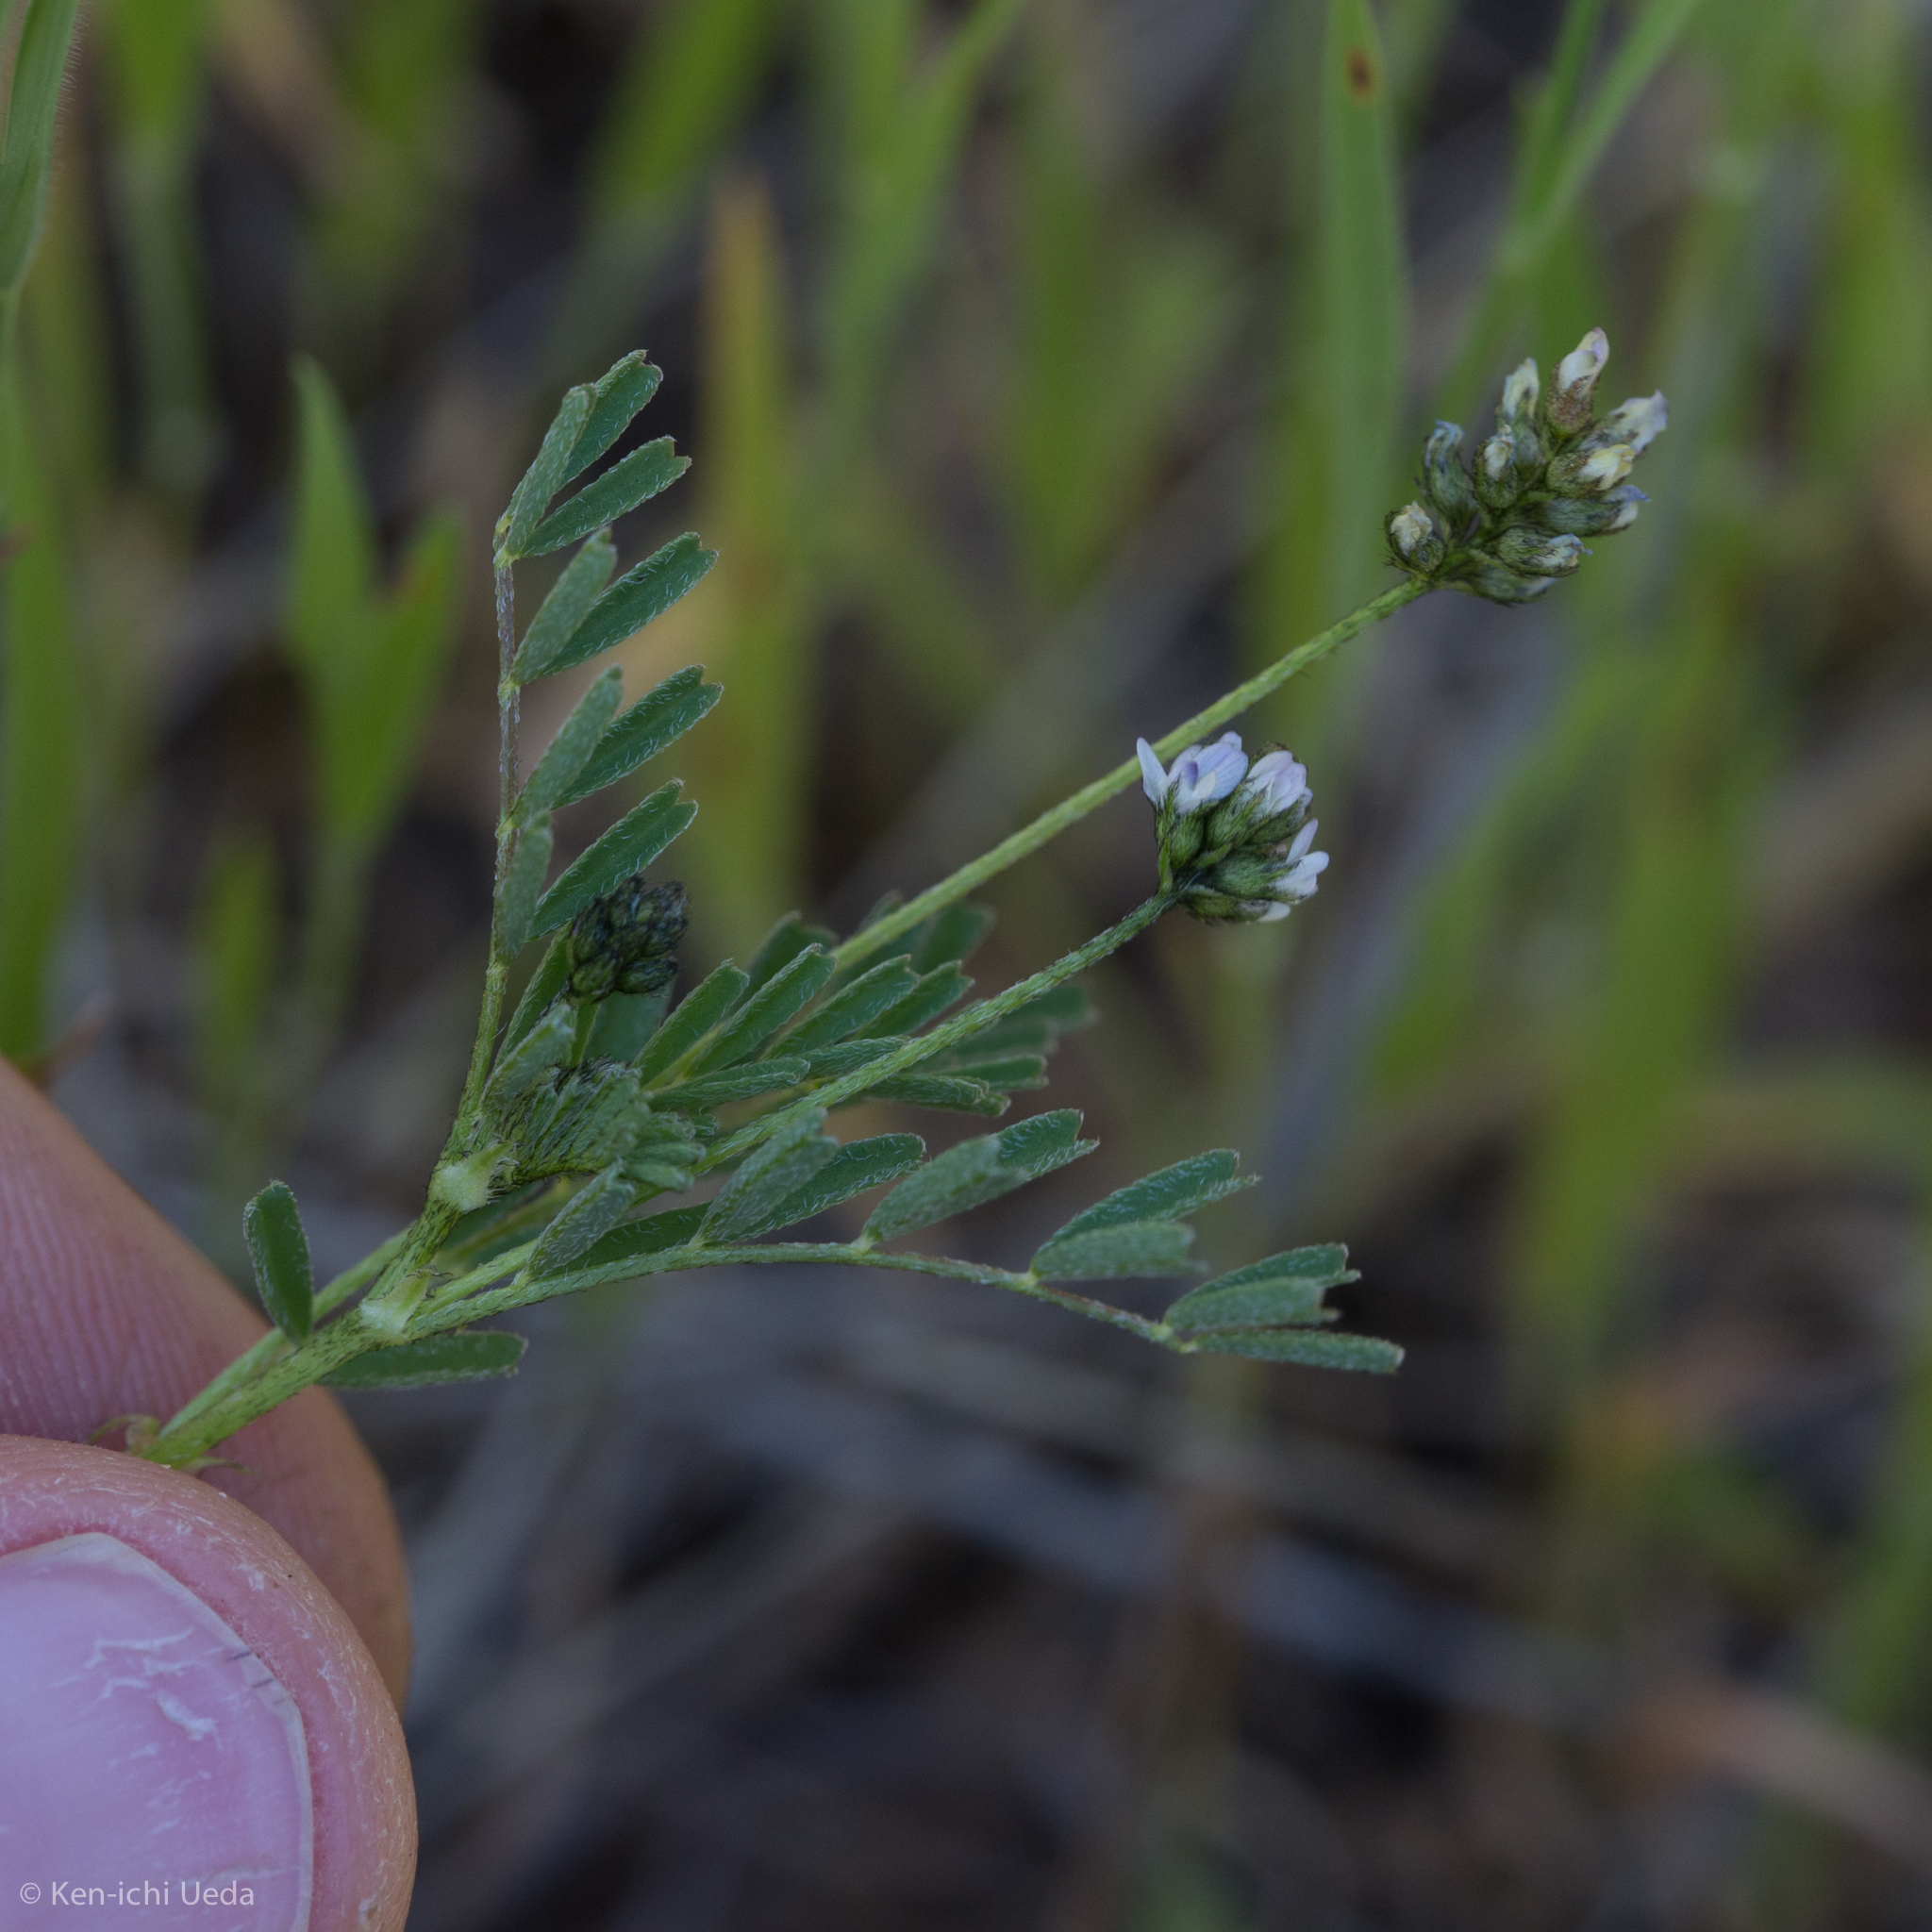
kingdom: Plantae
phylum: Tracheophyta
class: Magnoliopsida
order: Fabales
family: Fabaceae
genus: Astragalus
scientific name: Astragalus gambelianus
